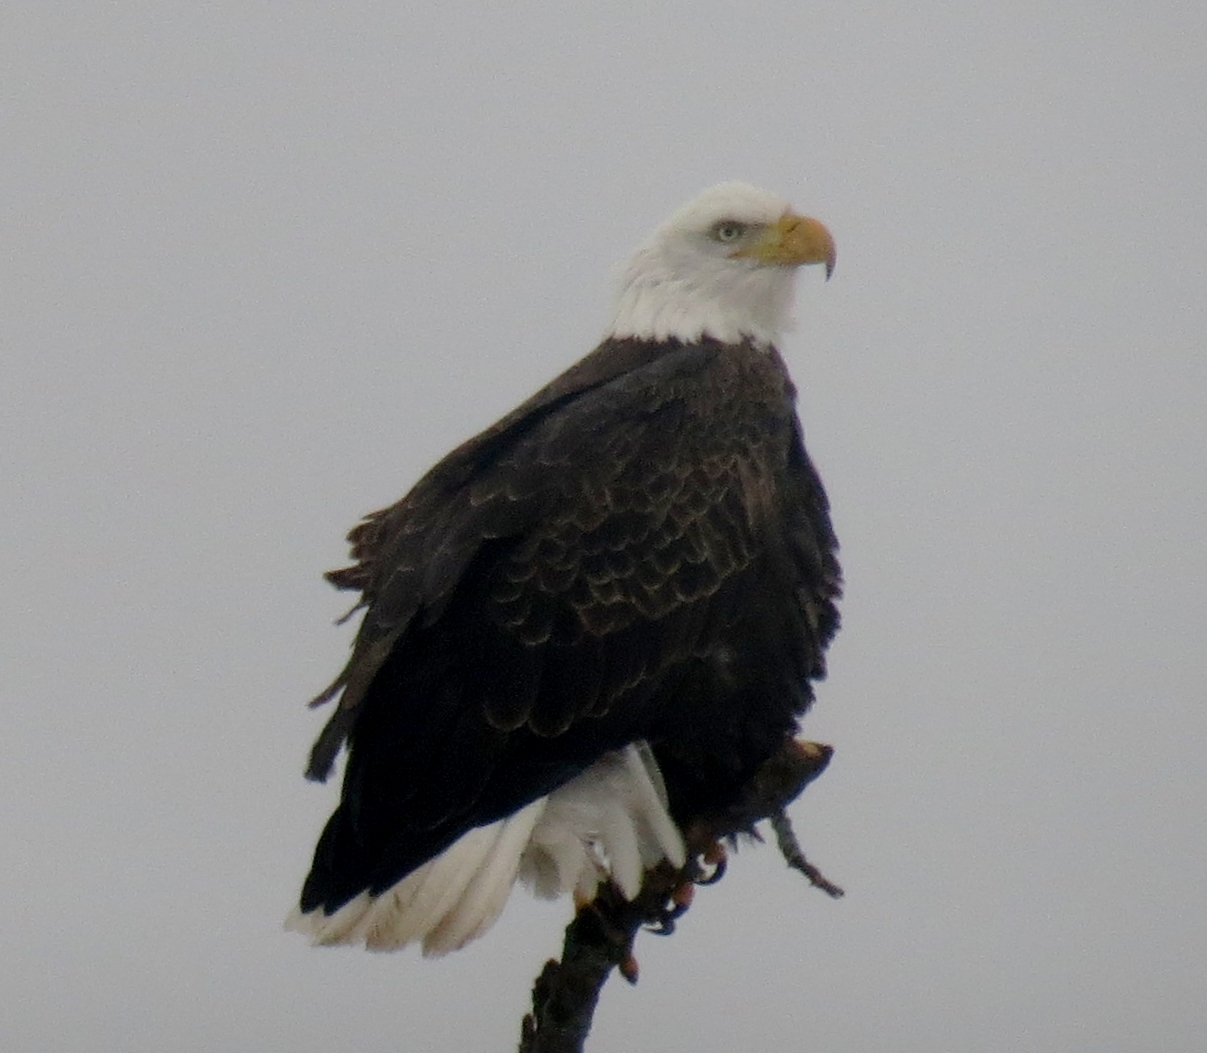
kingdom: Animalia
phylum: Chordata
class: Aves
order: Accipitriformes
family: Accipitridae
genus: Haliaeetus
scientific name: Haliaeetus leucocephalus
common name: Bald eagle
